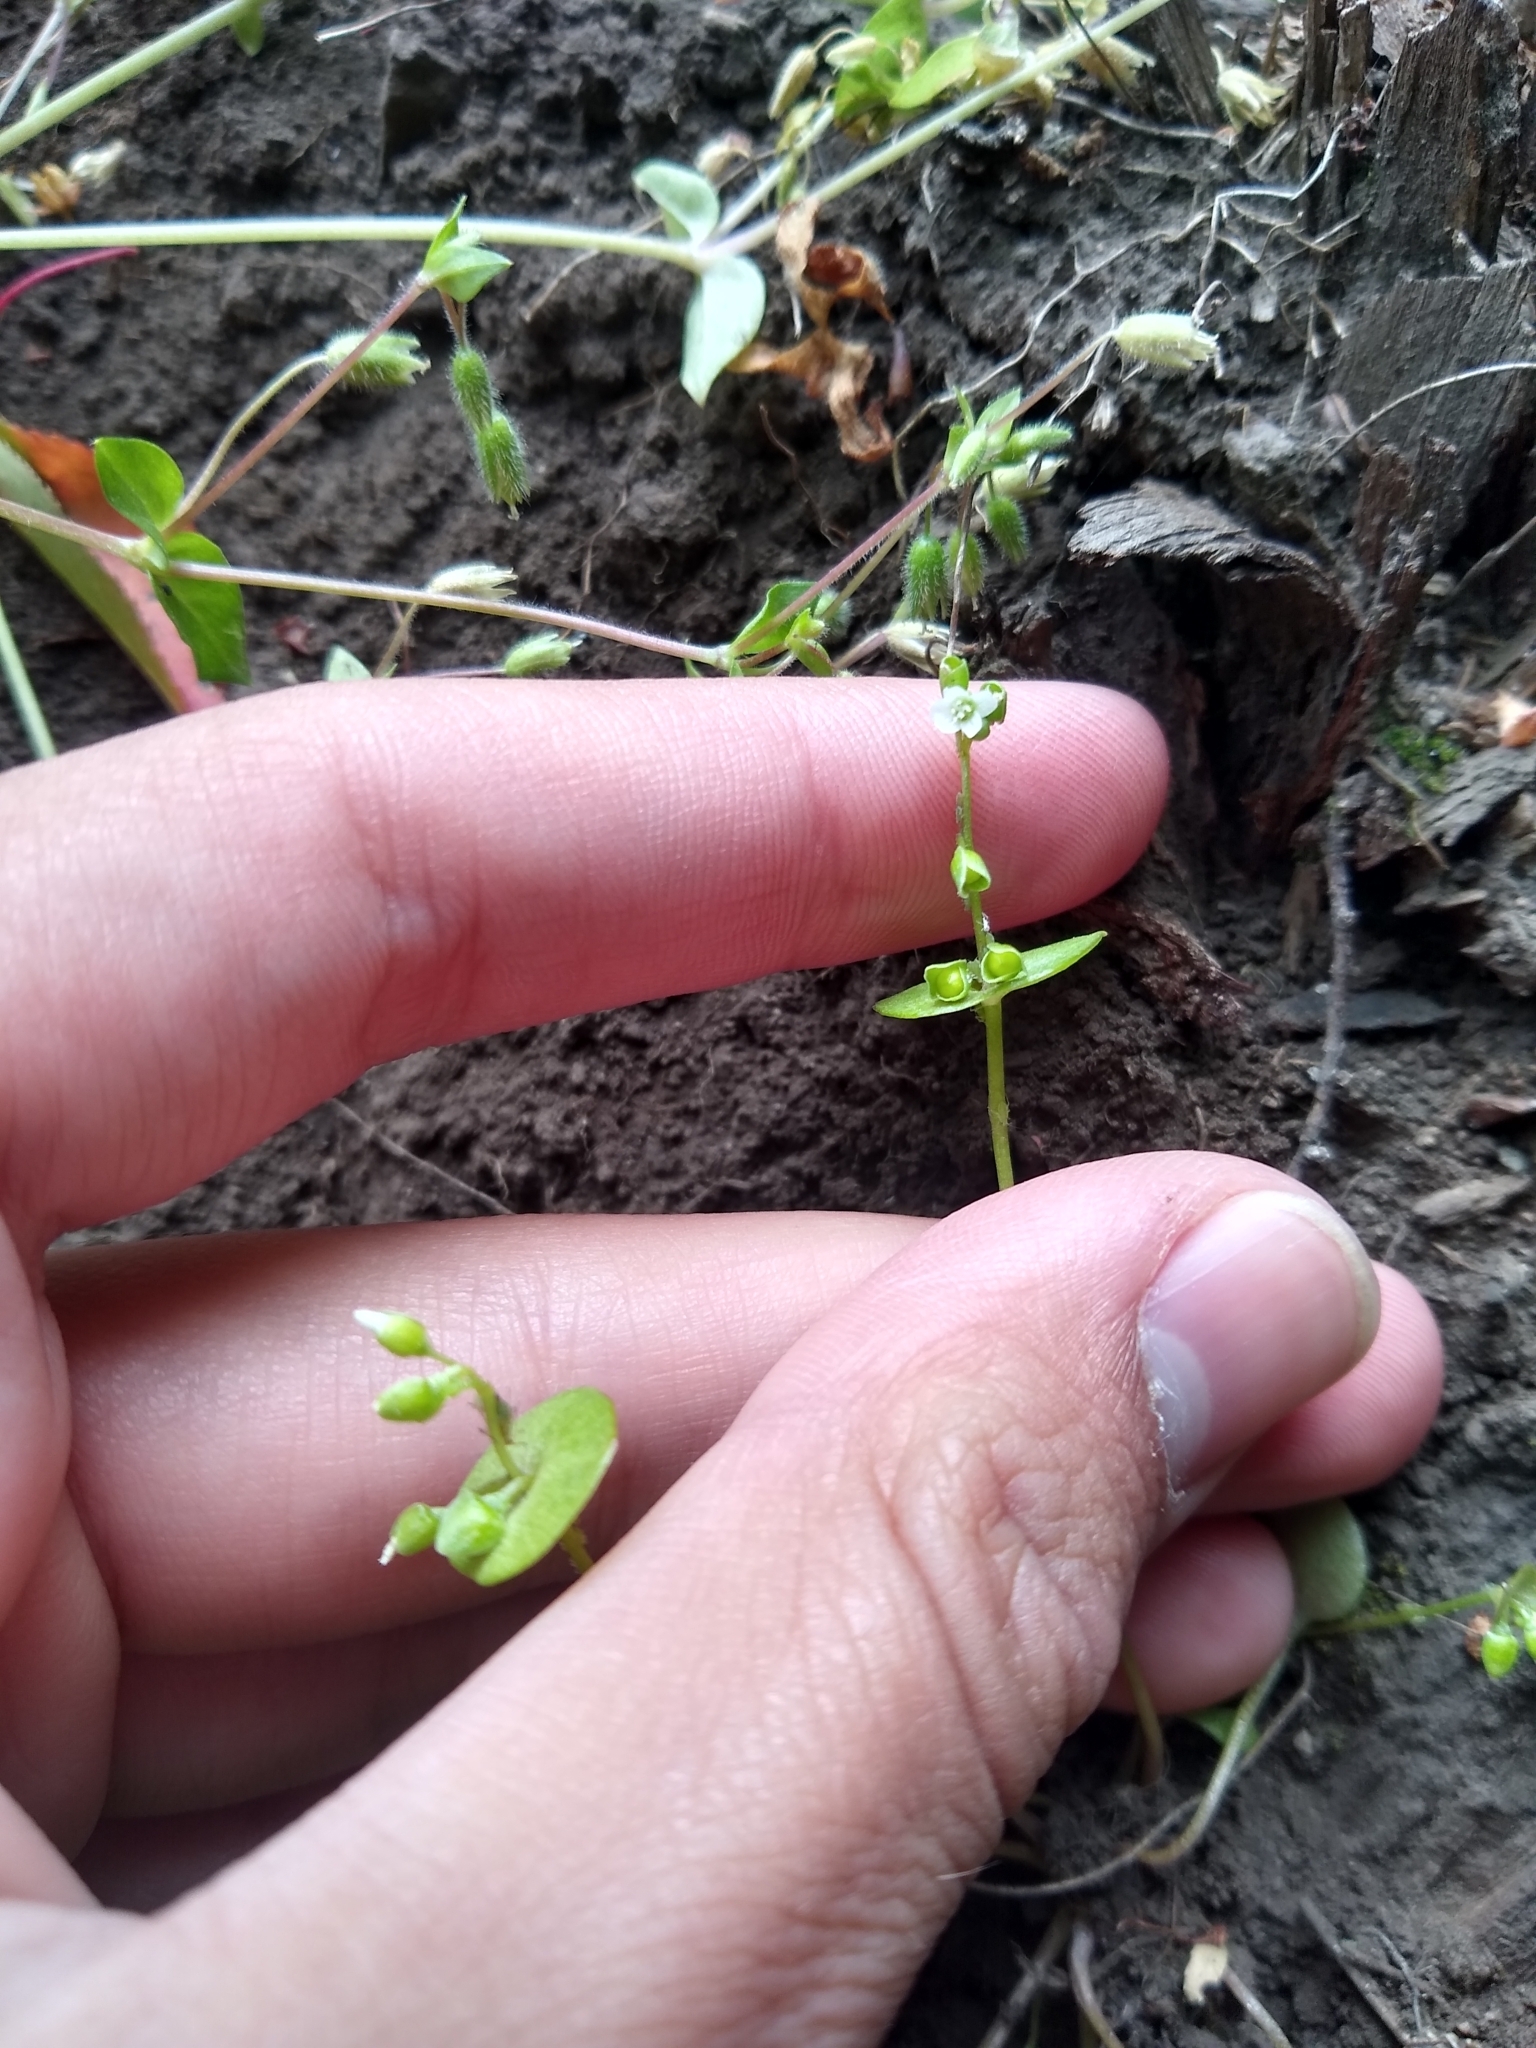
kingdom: Plantae
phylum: Tracheophyta
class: Magnoliopsida
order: Caryophyllales
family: Montiaceae
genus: Claytonia
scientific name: Claytonia perfoliata
